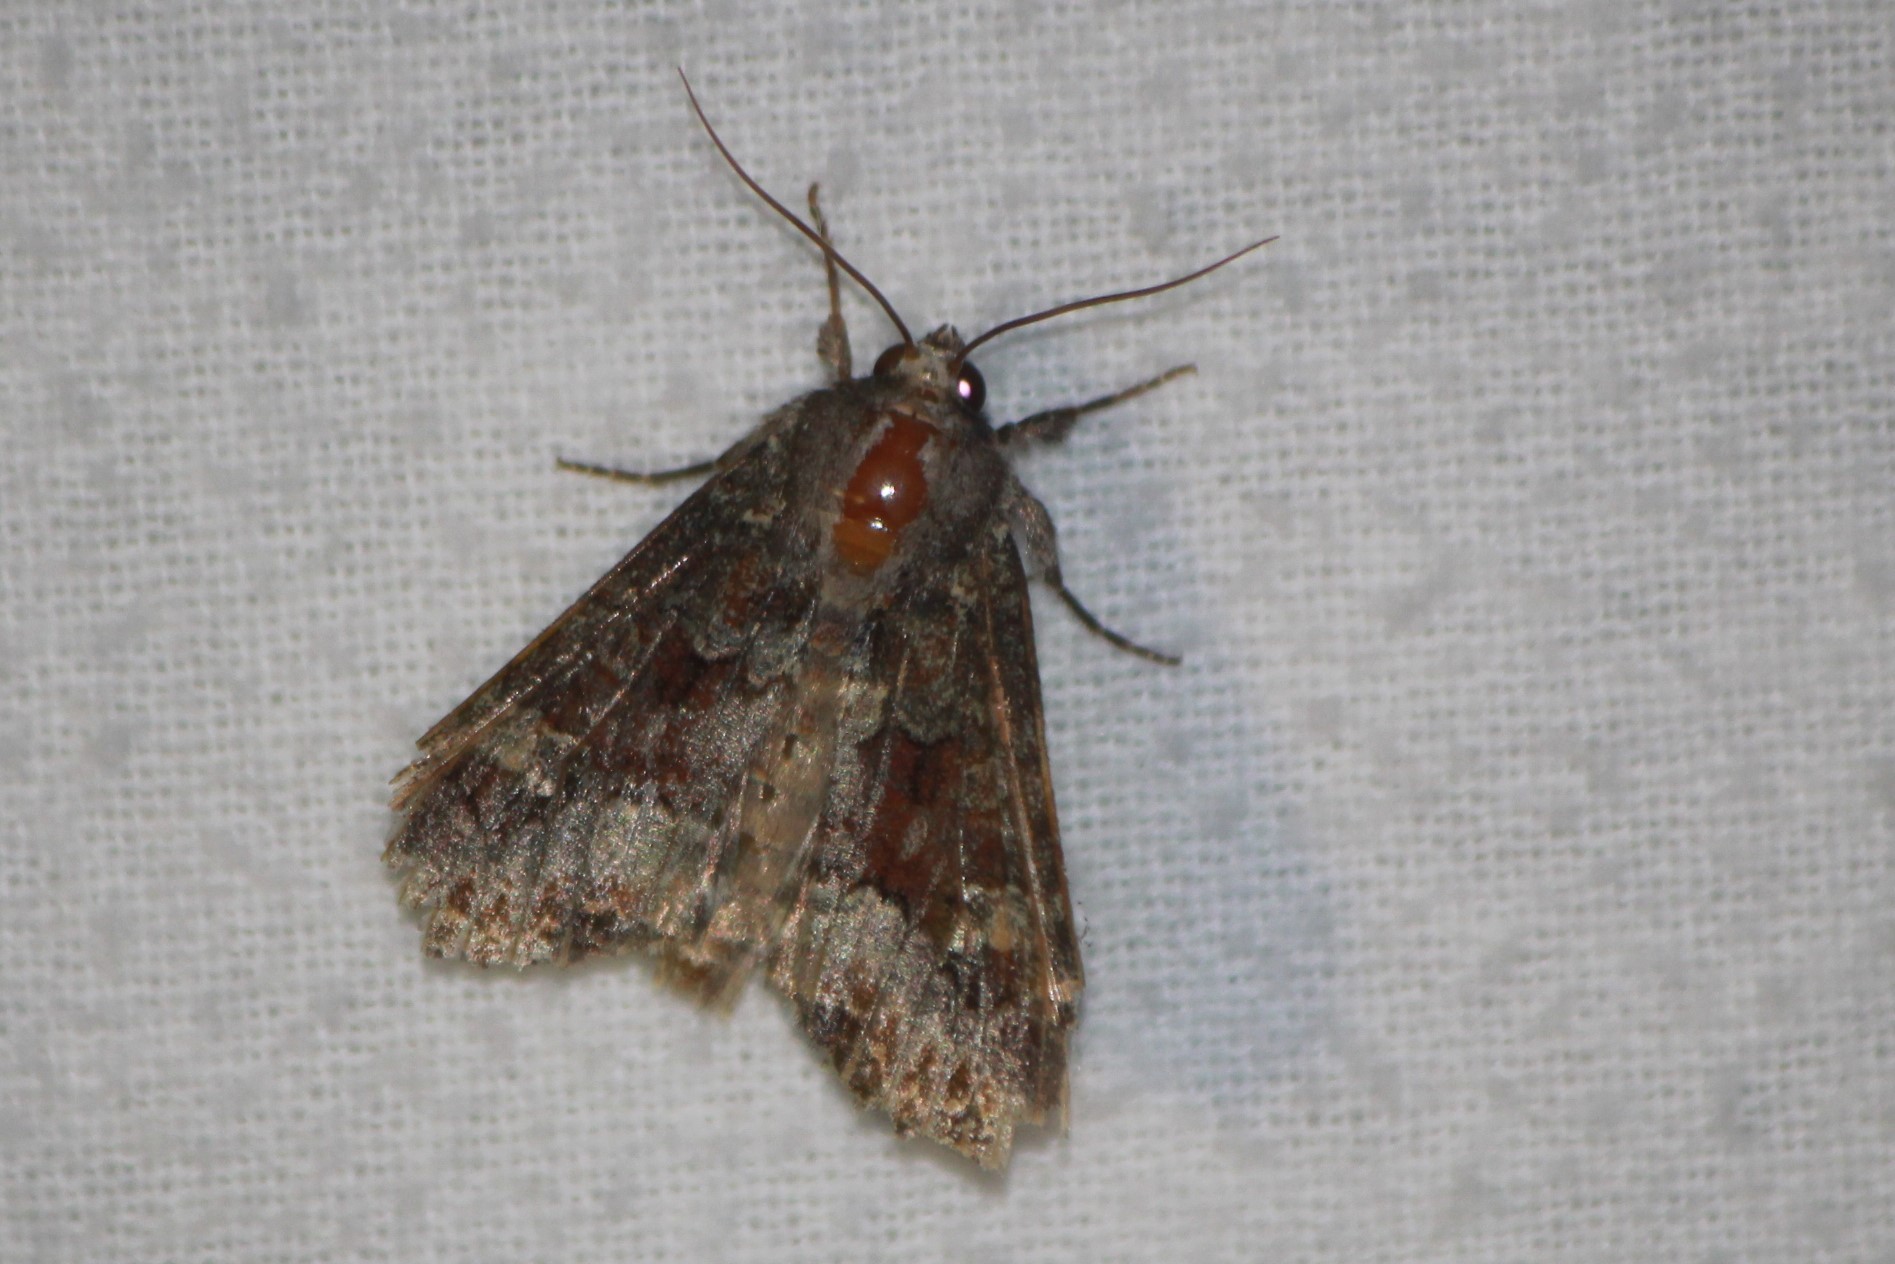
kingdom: Animalia
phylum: Arthropoda
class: Insecta
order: Lepidoptera
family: Noctuidae
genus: Apamea
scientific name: Apamea amputatrix
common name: Yellow-headed cutworm moth
